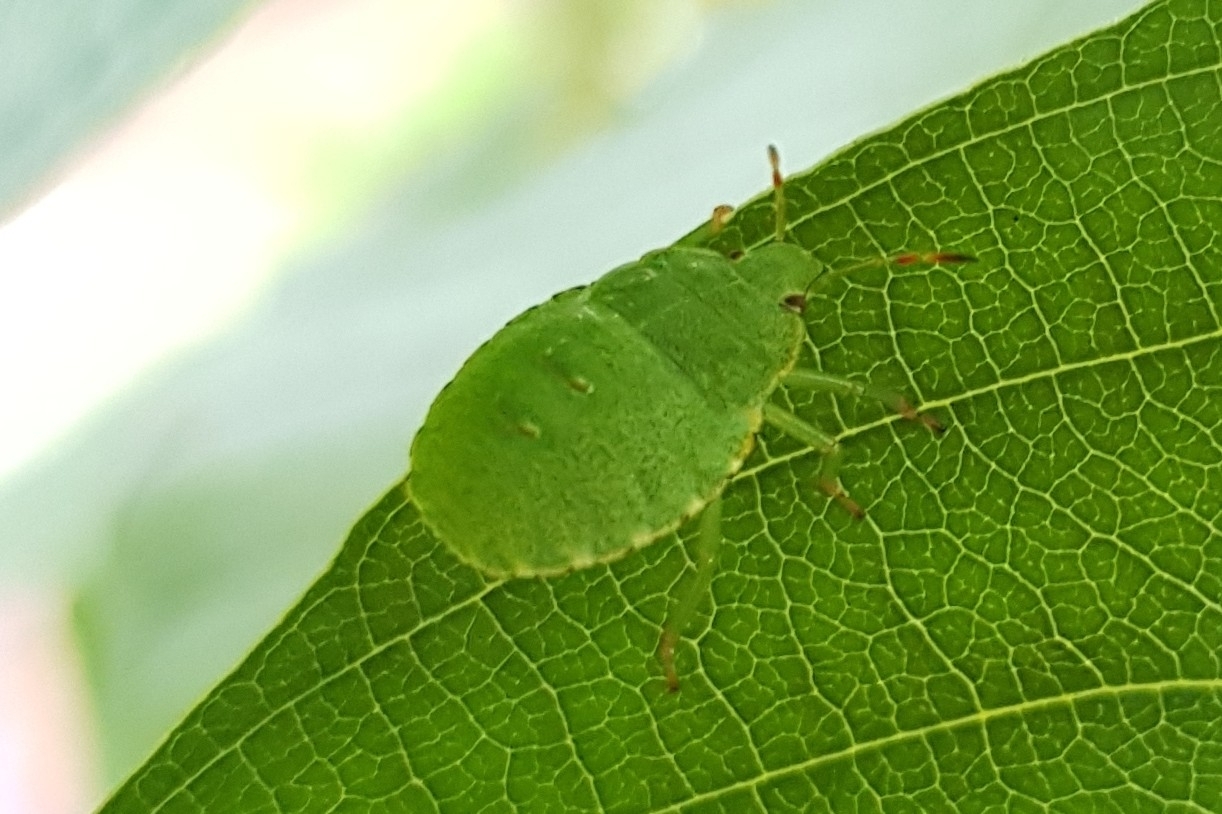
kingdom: Animalia
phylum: Arthropoda
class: Insecta
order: Hemiptera
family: Pentatomidae
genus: Palomena
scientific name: Palomena prasina
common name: Green shieldbug
